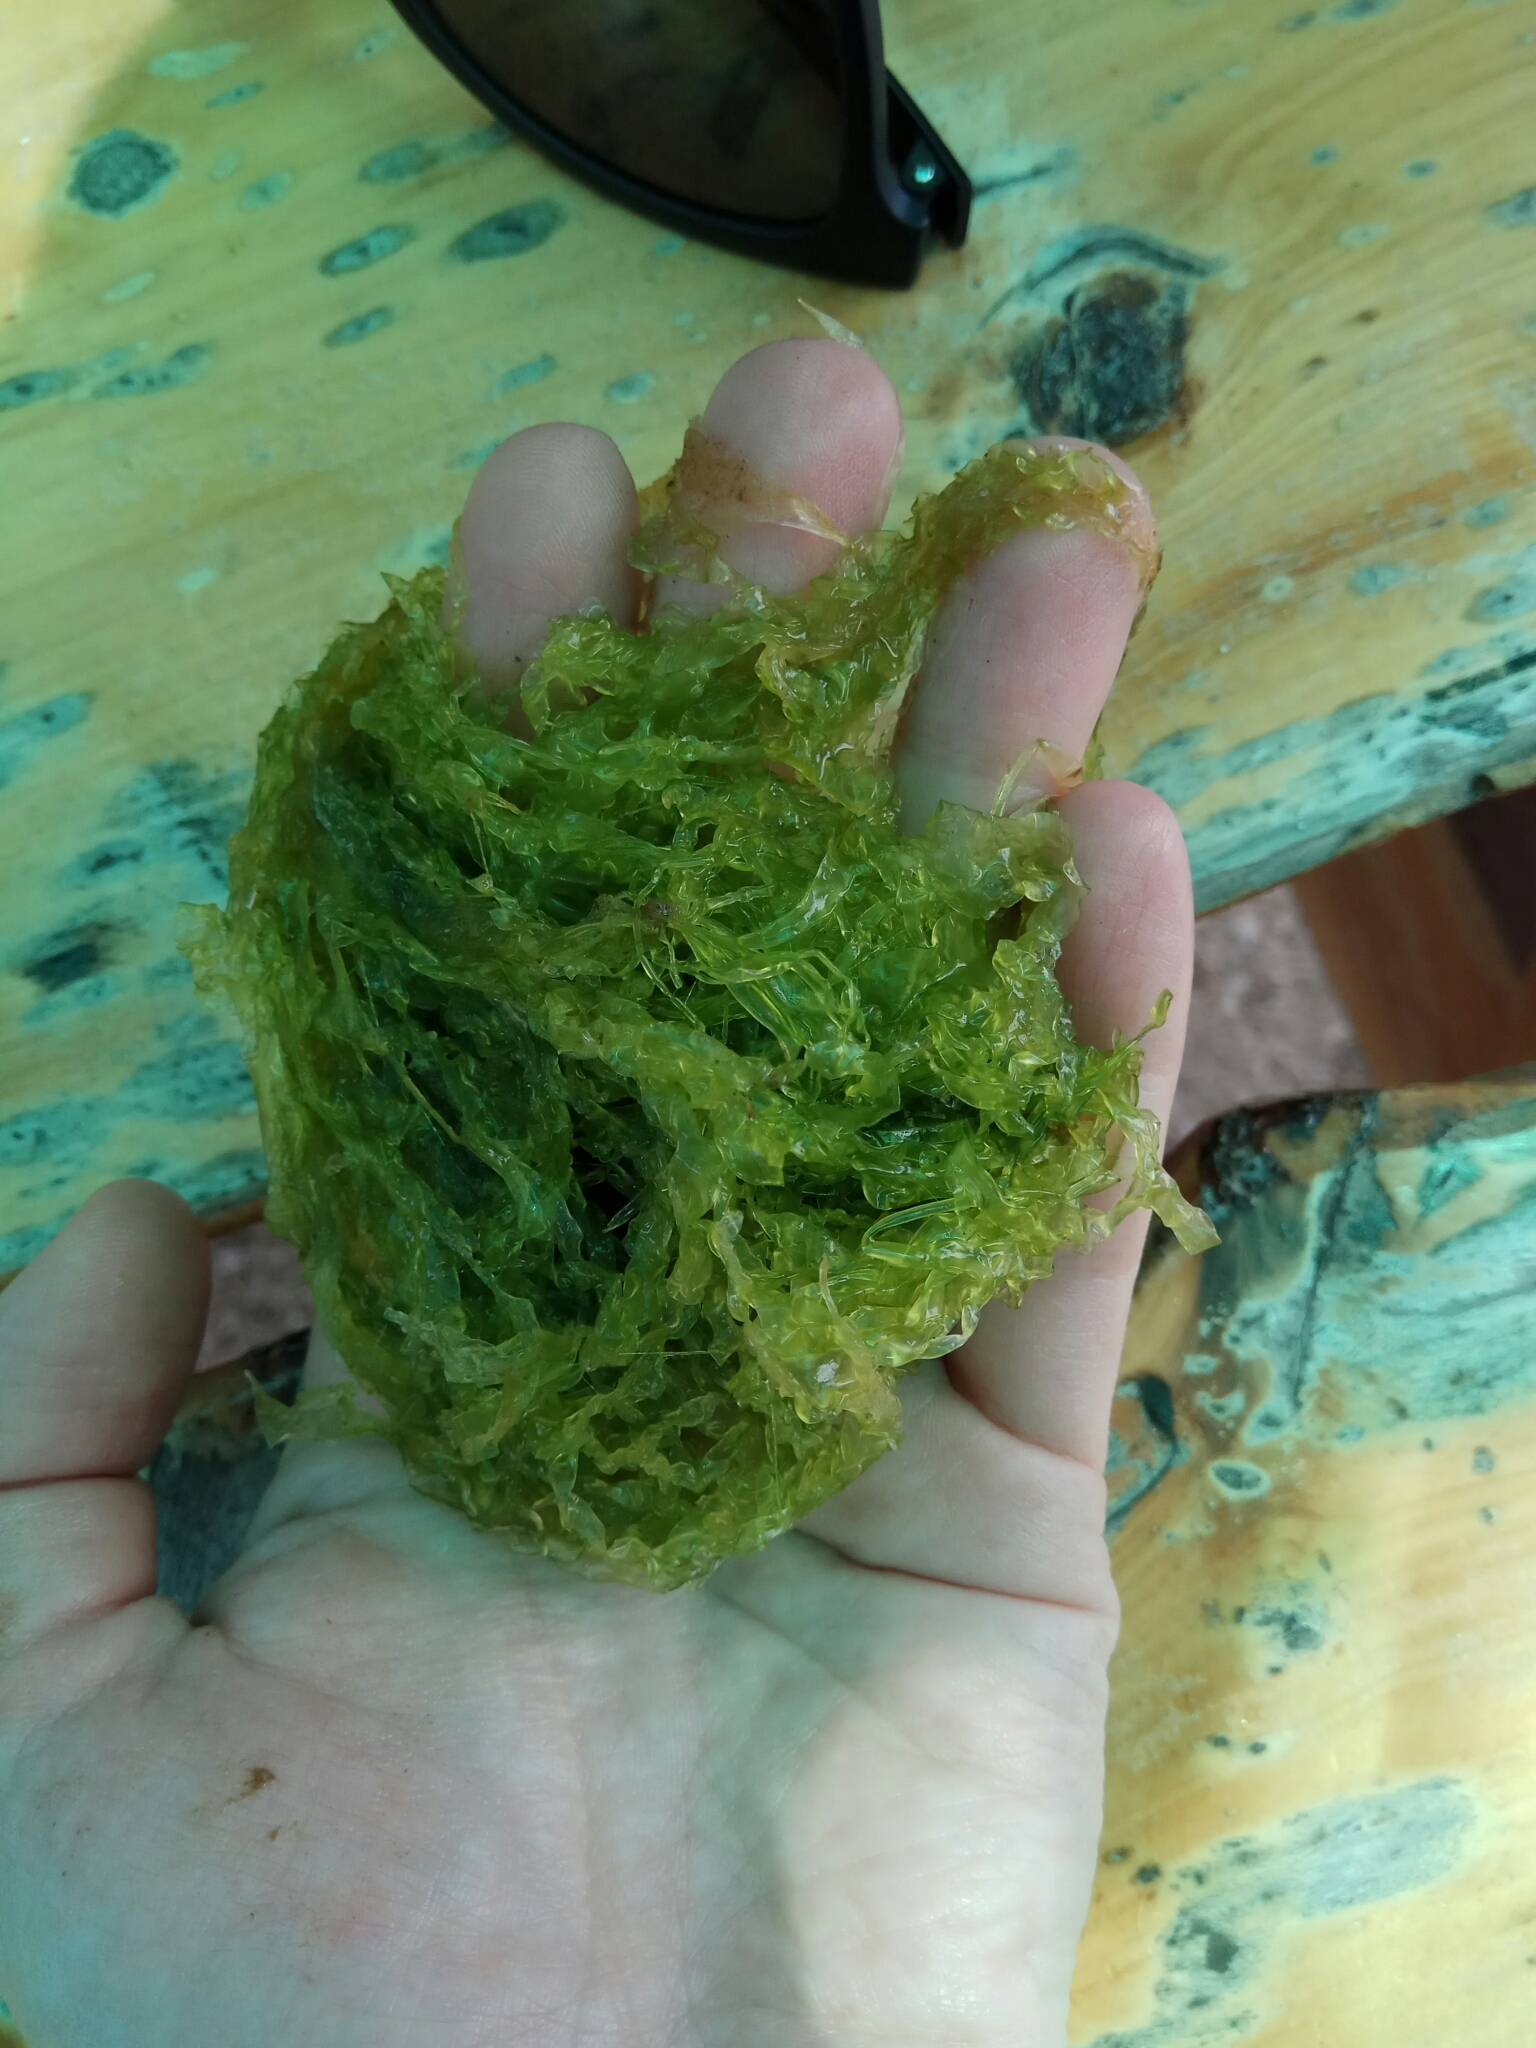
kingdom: Plantae
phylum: Chlorophyta
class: Ulvophyceae
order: Ulvales
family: Ulvaceae
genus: Ulva
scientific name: Ulva intestinalis
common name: Gut weed
